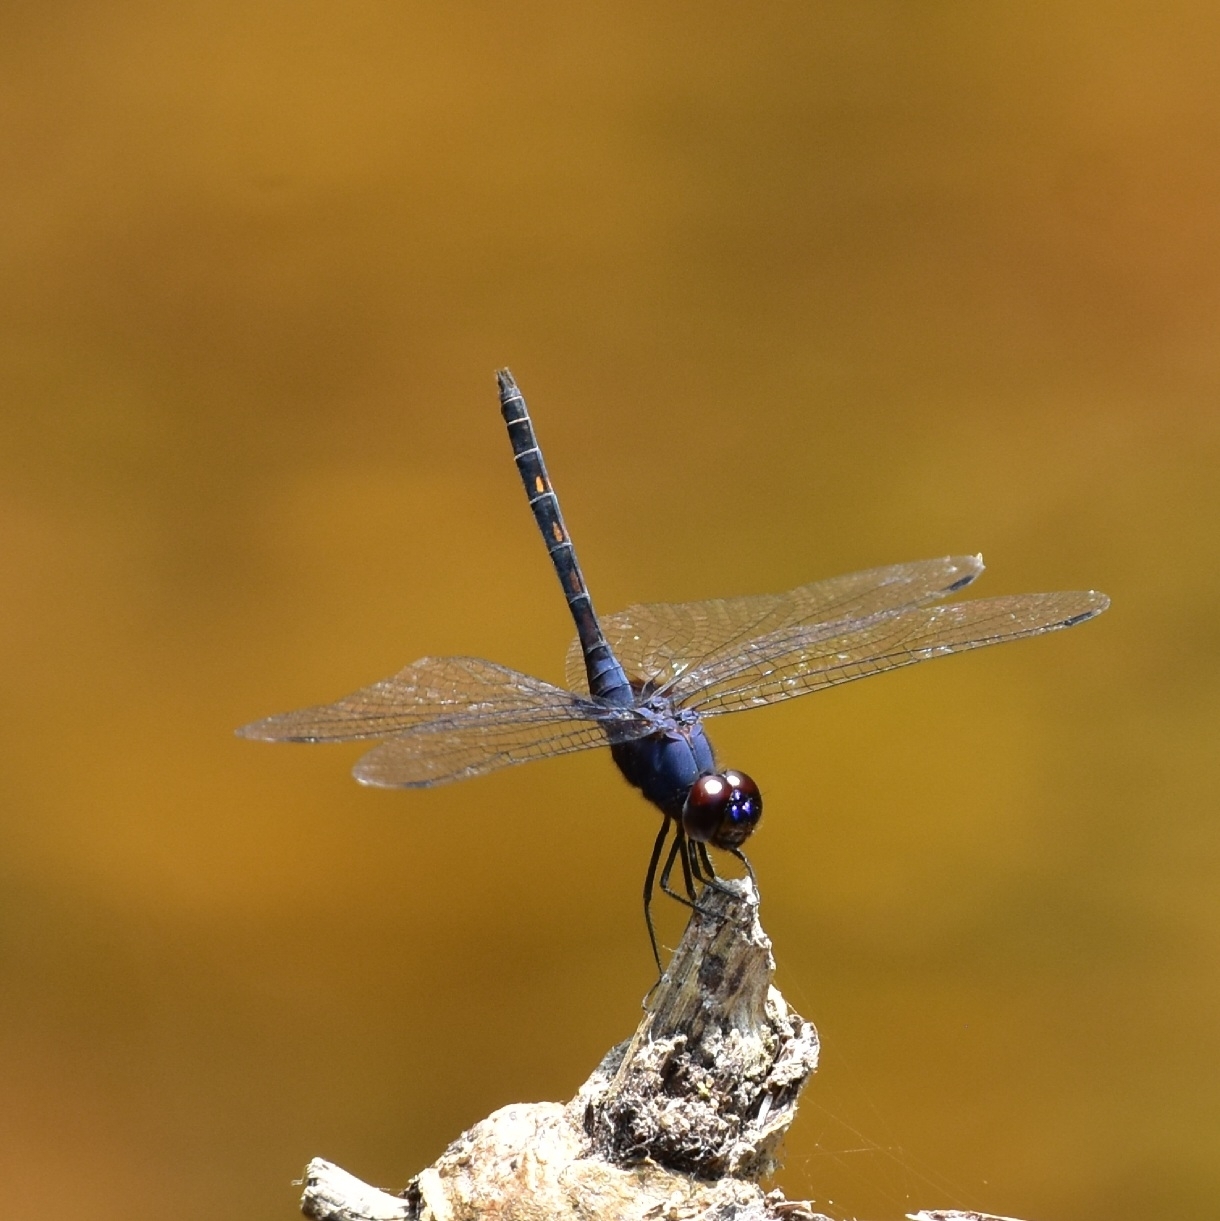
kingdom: Animalia
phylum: Arthropoda
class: Insecta
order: Odonata
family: Libellulidae
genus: Trithemis
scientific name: Trithemis festiva
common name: Indigo dropwing
